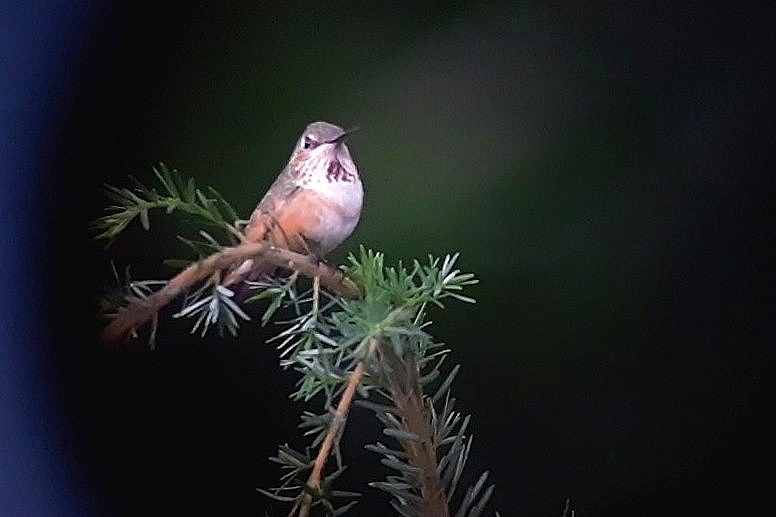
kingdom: Animalia
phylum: Chordata
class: Aves
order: Apodiformes
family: Trochilidae
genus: Selasphorus
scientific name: Selasphorus rufus
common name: Rufous hummingbird
